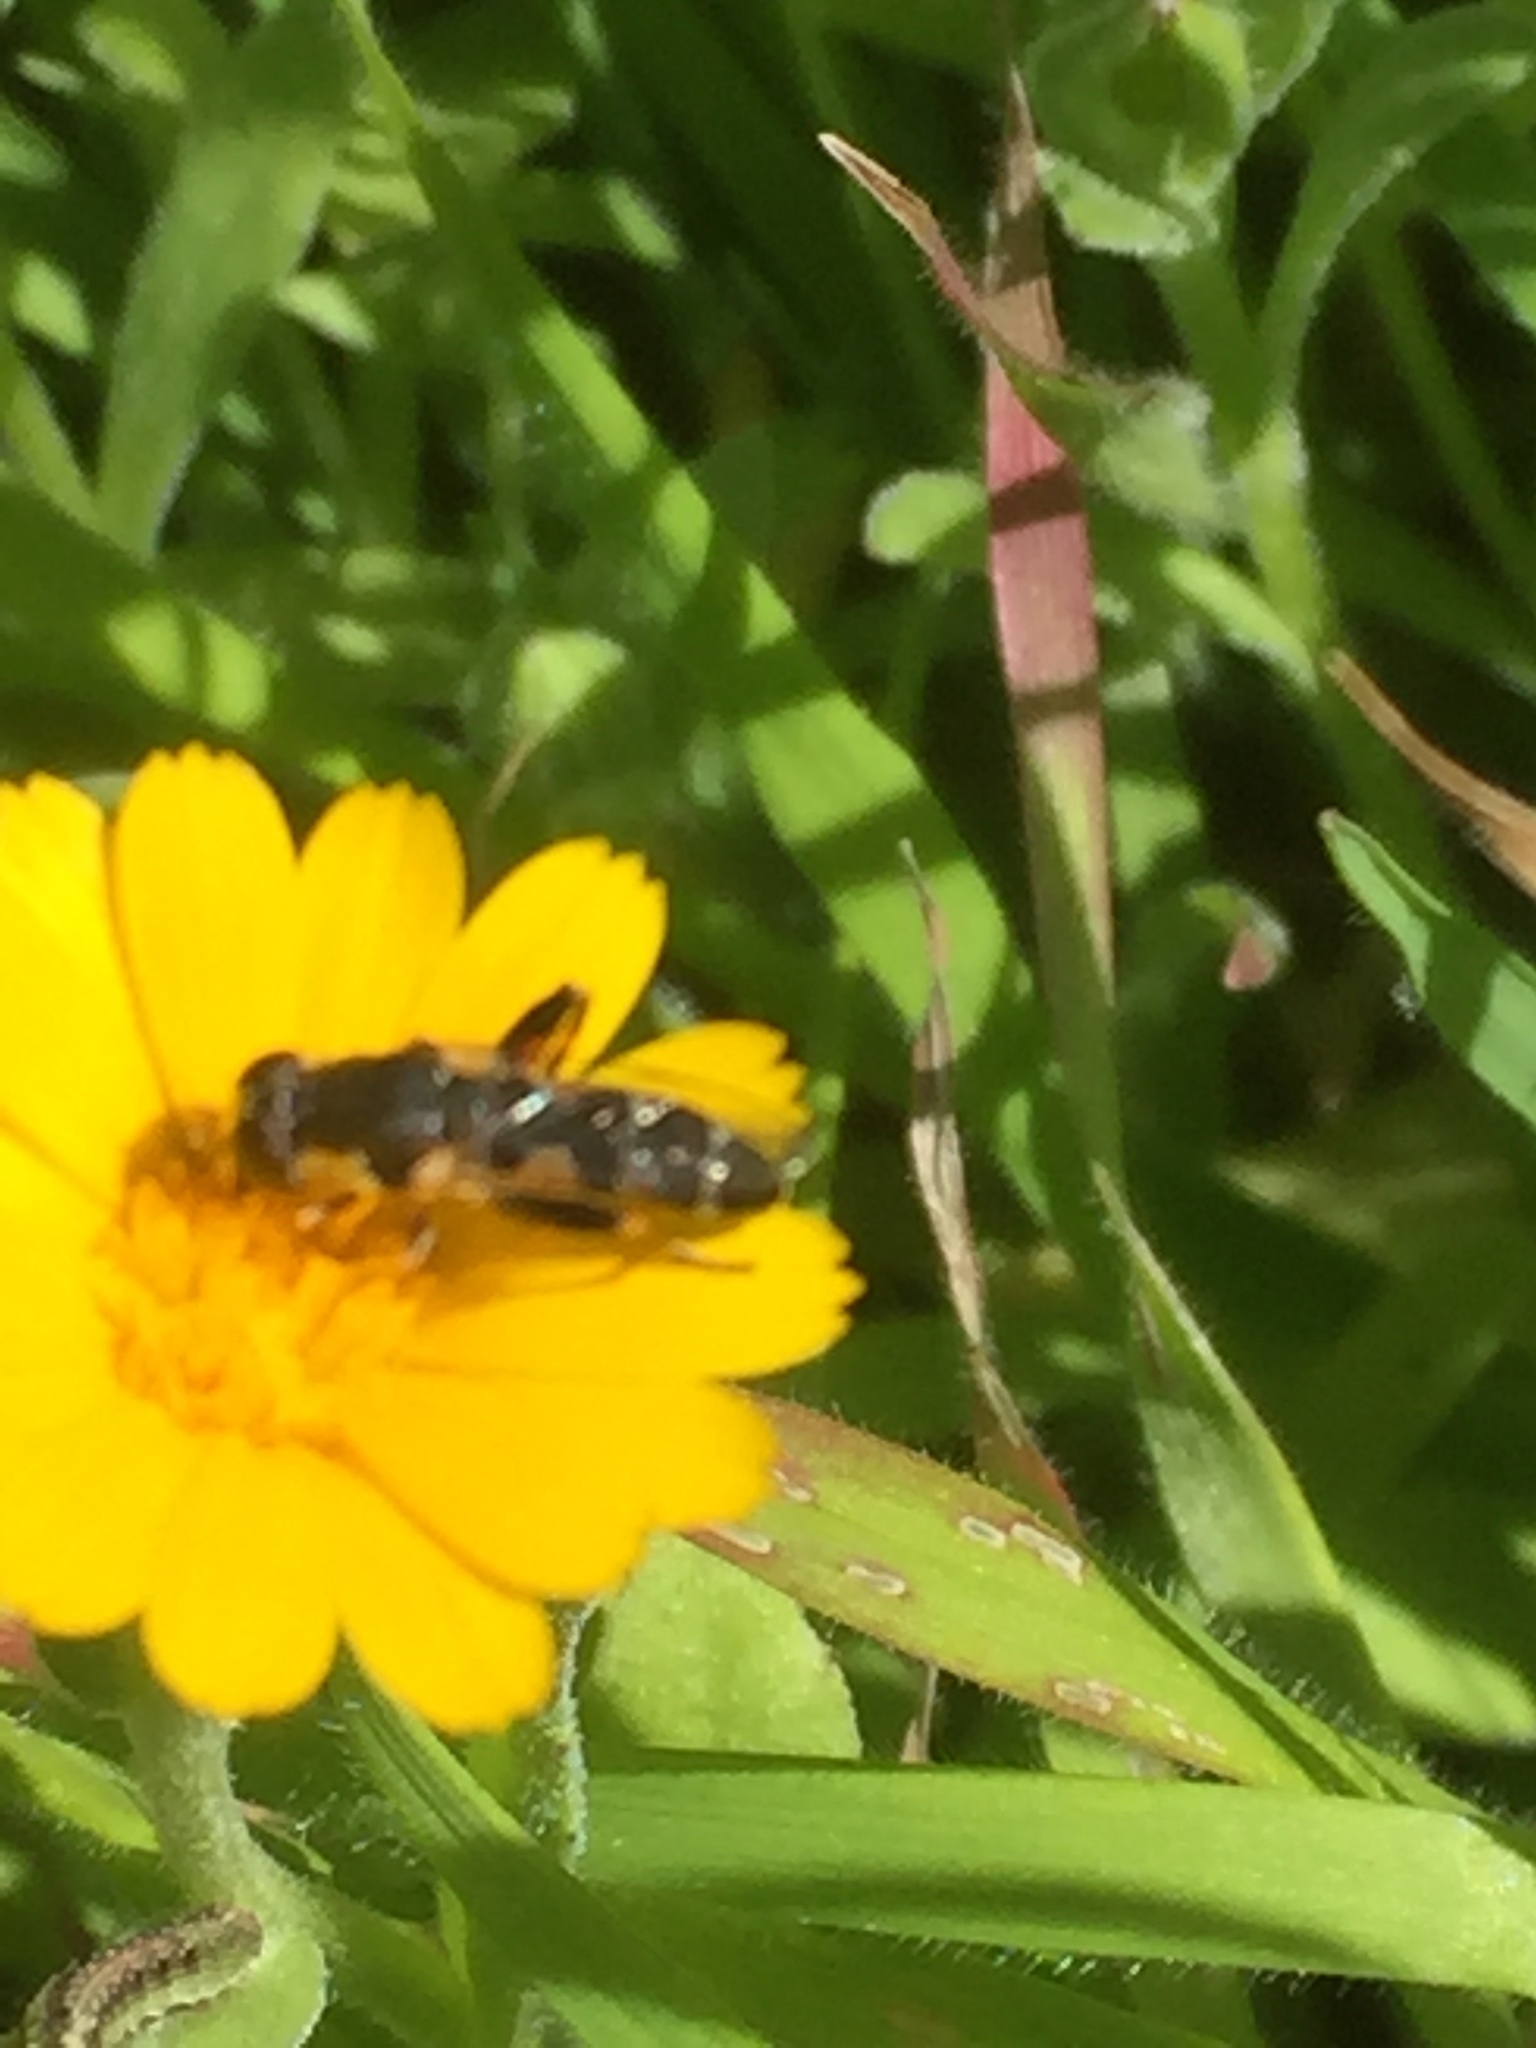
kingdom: Plantae
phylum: Tracheophyta
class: Magnoliopsida
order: Asterales
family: Asteraceae
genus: Calendula
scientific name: Calendula arvensis
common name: Field marigold
